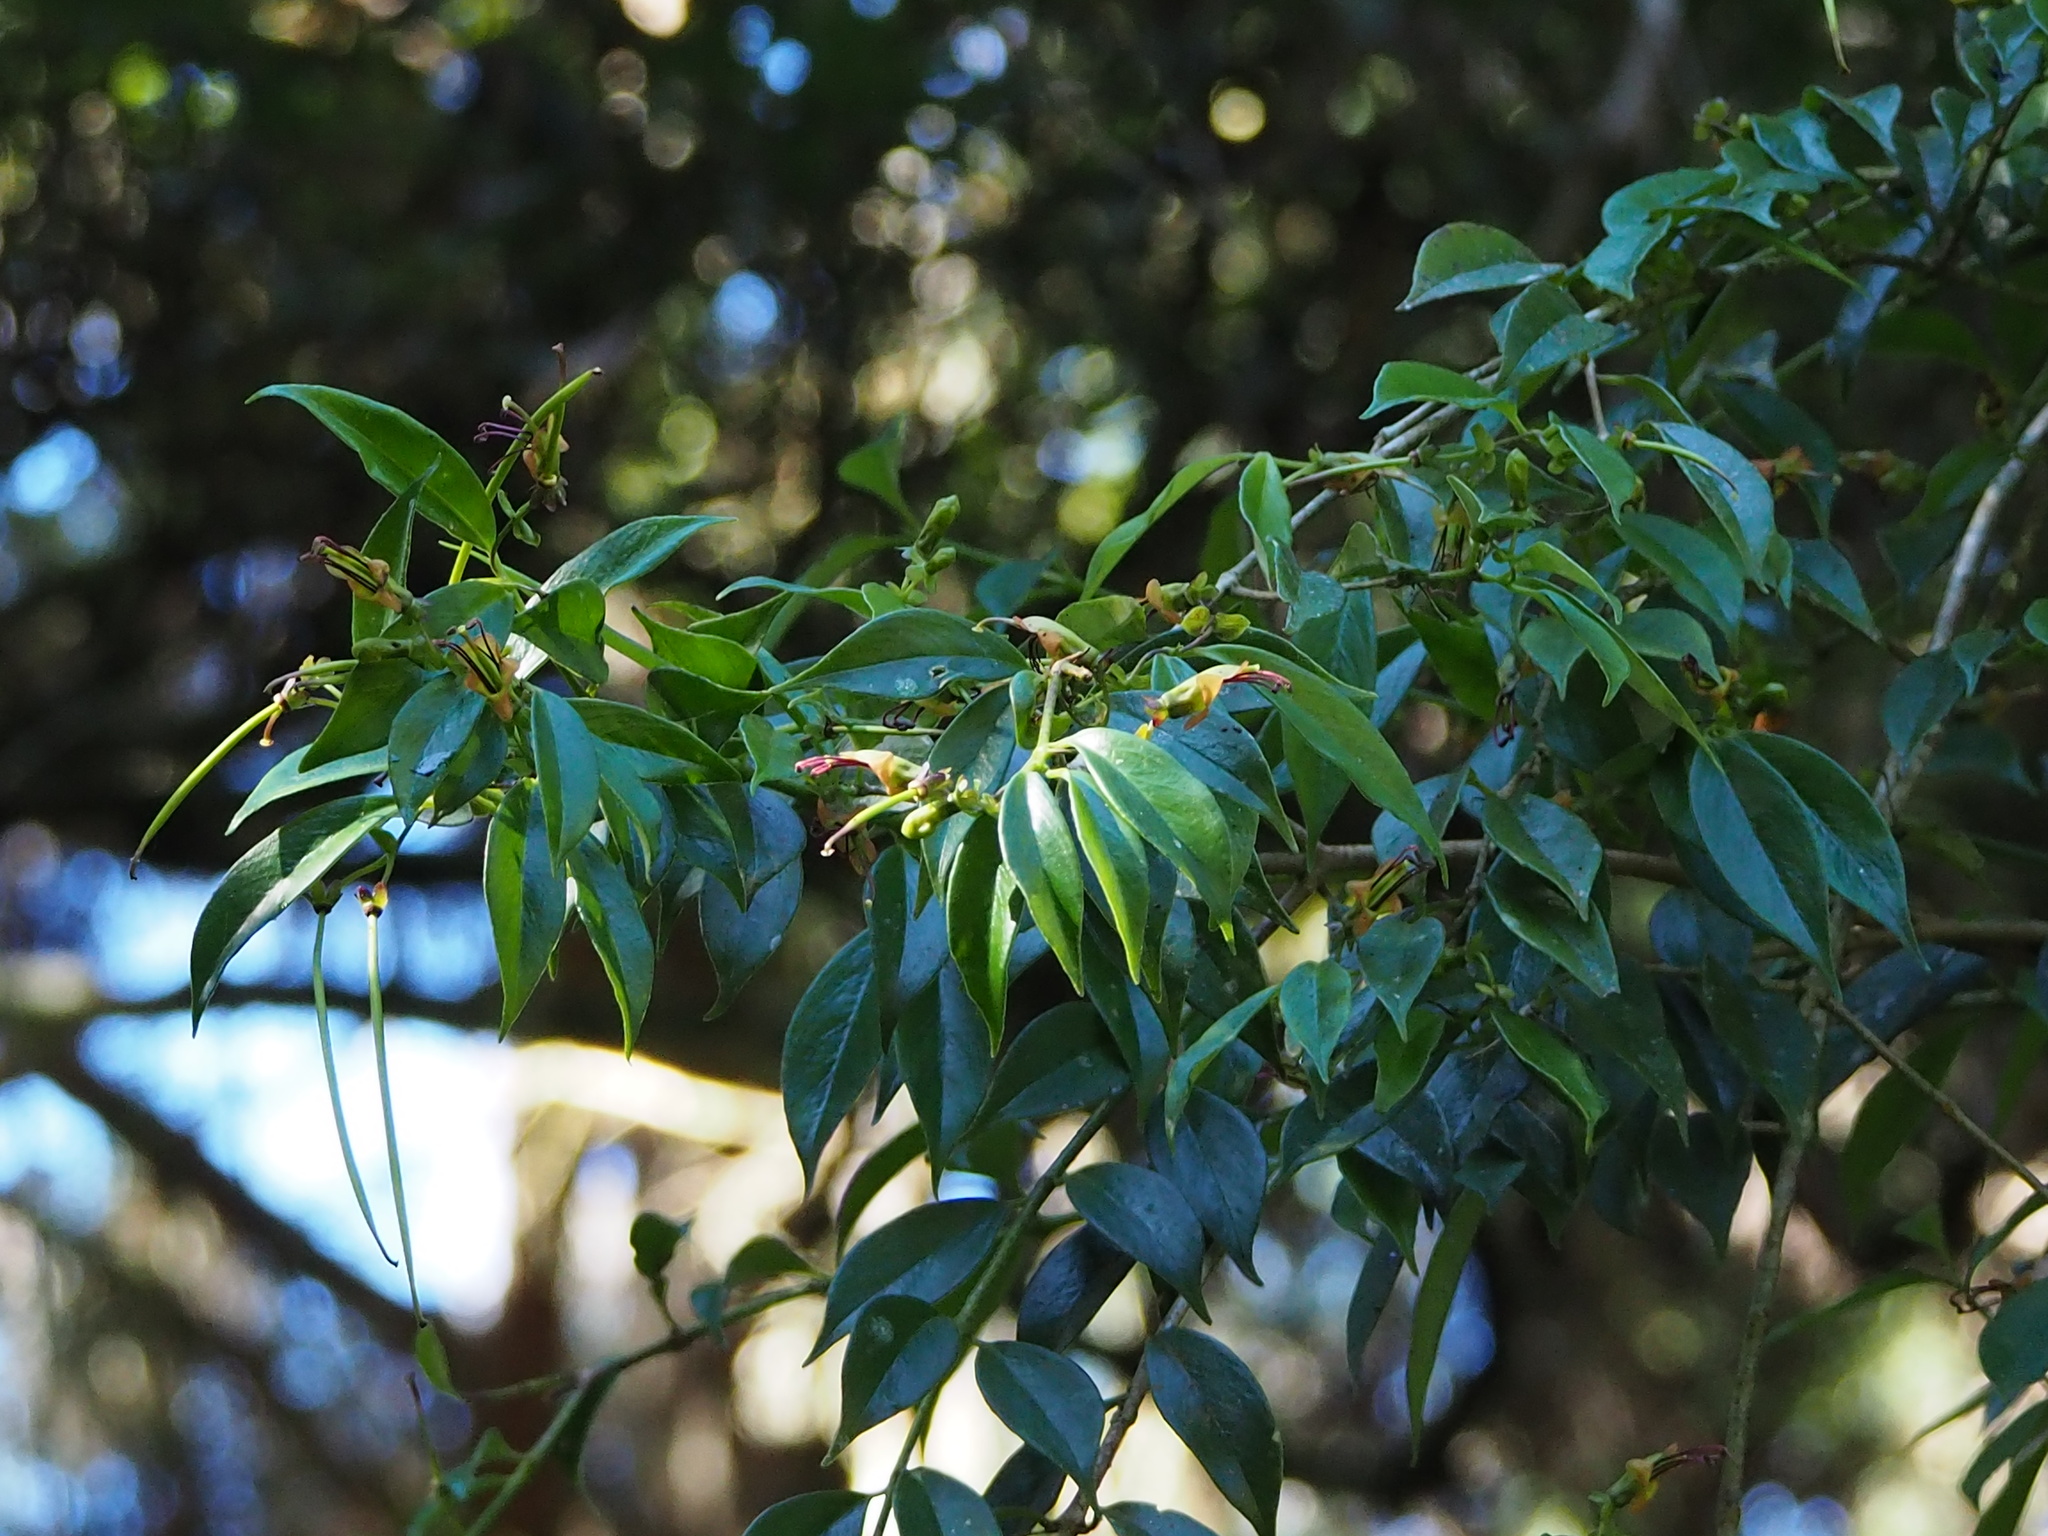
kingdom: Plantae
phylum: Tracheophyta
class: Magnoliopsida
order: Lamiales
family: Gesneriaceae
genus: Aeschynanthus
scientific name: Aeschynanthus acuminatus
